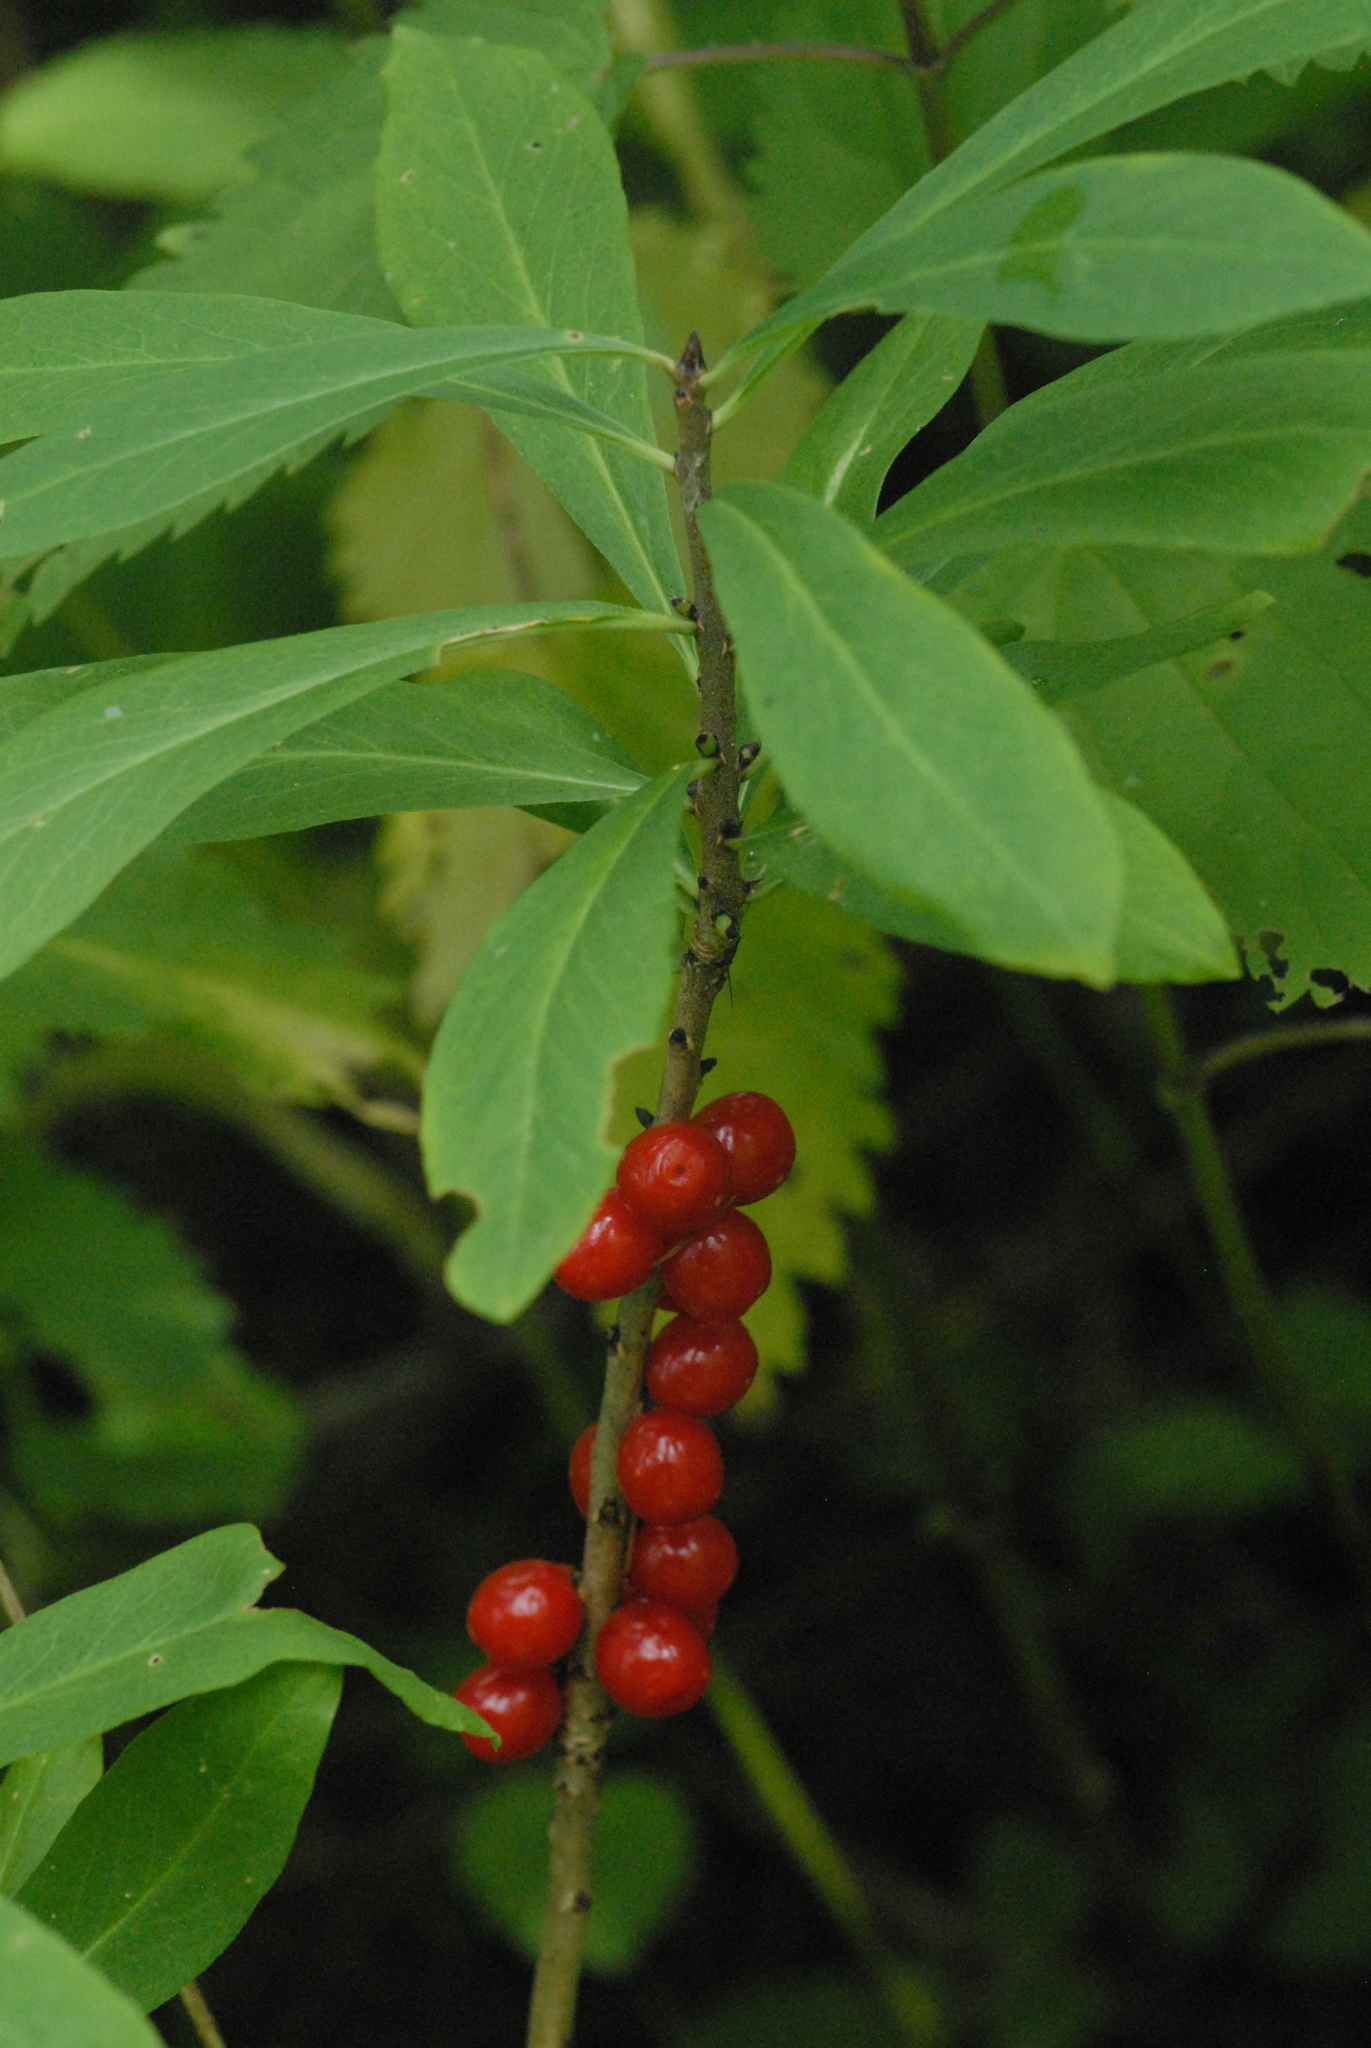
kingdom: Plantae
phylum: Tracheophyta
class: Magnoliopsida
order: Malvales
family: Thymelaeaceae
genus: Daphne
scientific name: Daphne mezereum
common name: Mezereon
